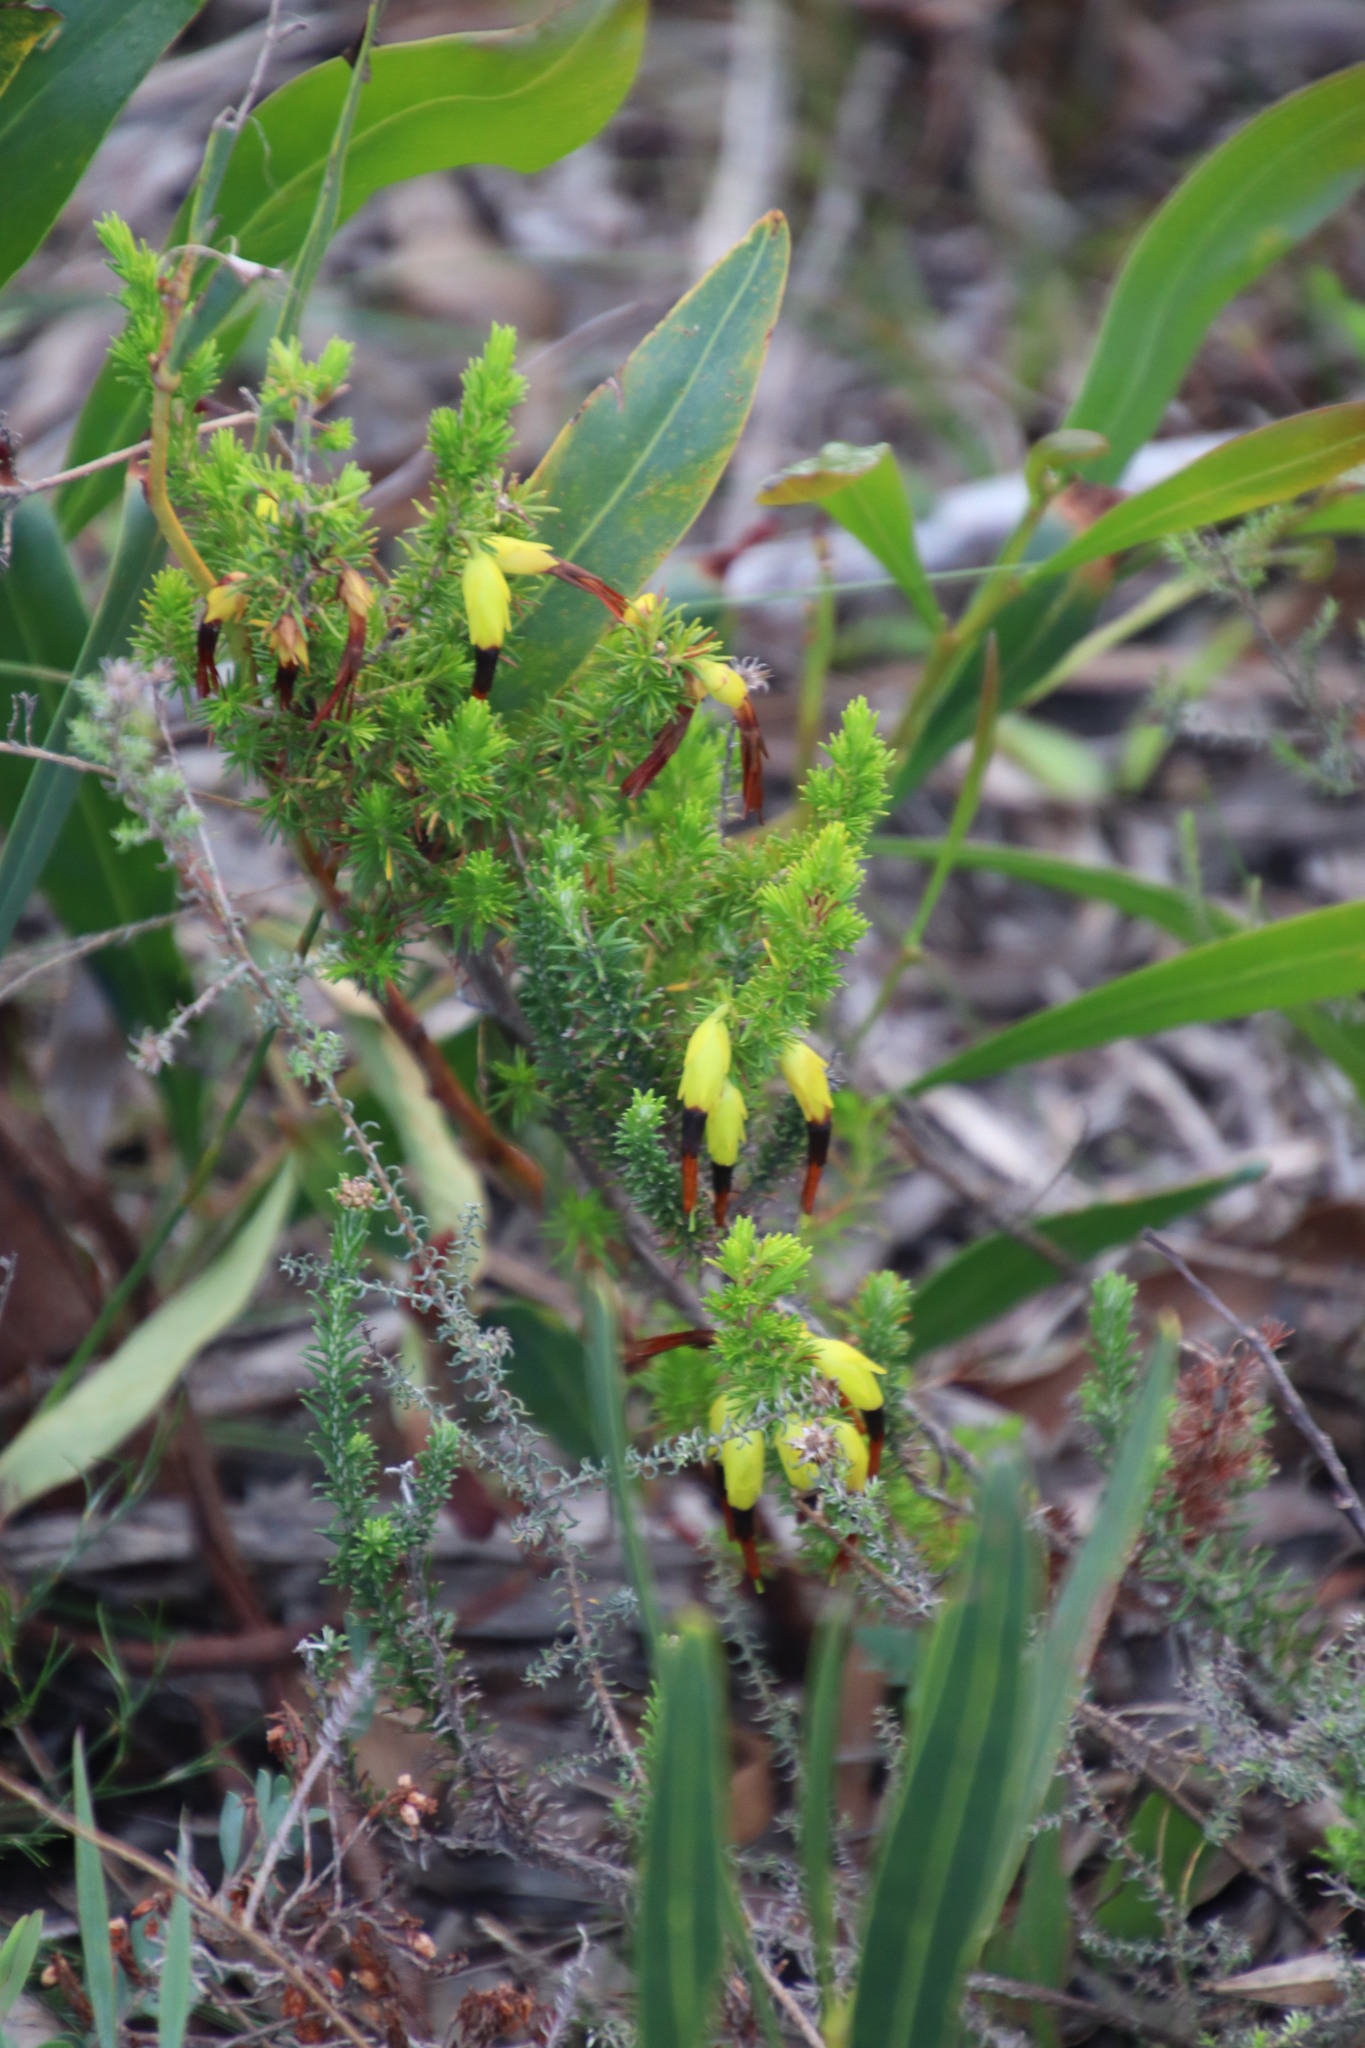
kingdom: Plantae
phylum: Tracheophyta
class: Magnoliopsida
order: Ericales
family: Ericaceae
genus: Erica
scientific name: Erica melastoma
